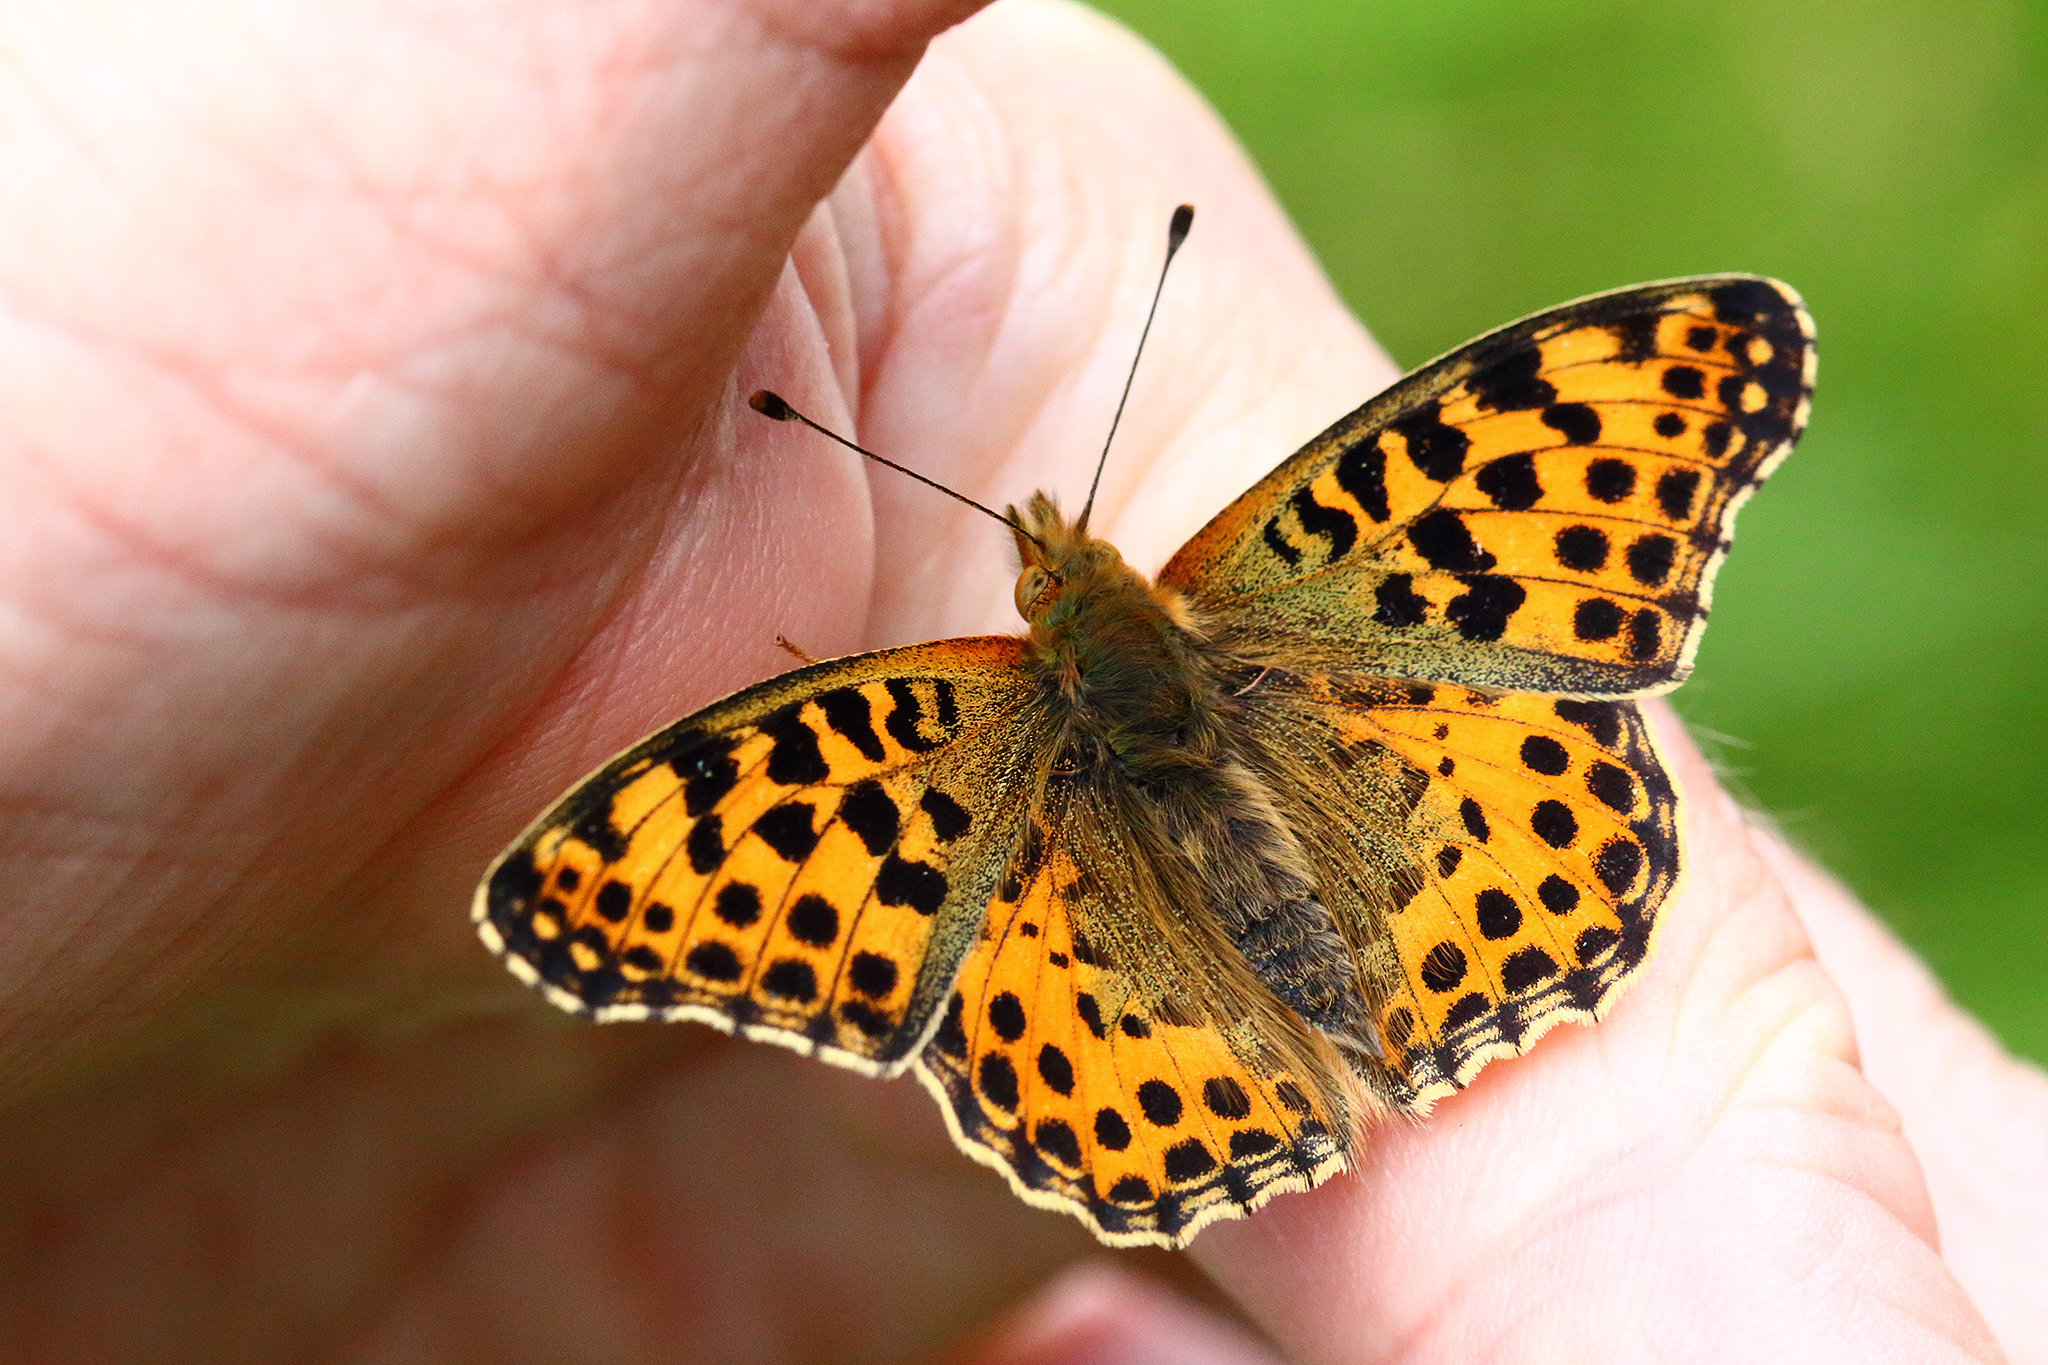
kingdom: Animalia
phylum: Arthropoda
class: Insecta
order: Lepidoptera
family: Nymphalidae
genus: Issoria
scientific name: Issoria lathonia
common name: Queen of spain fritillary
